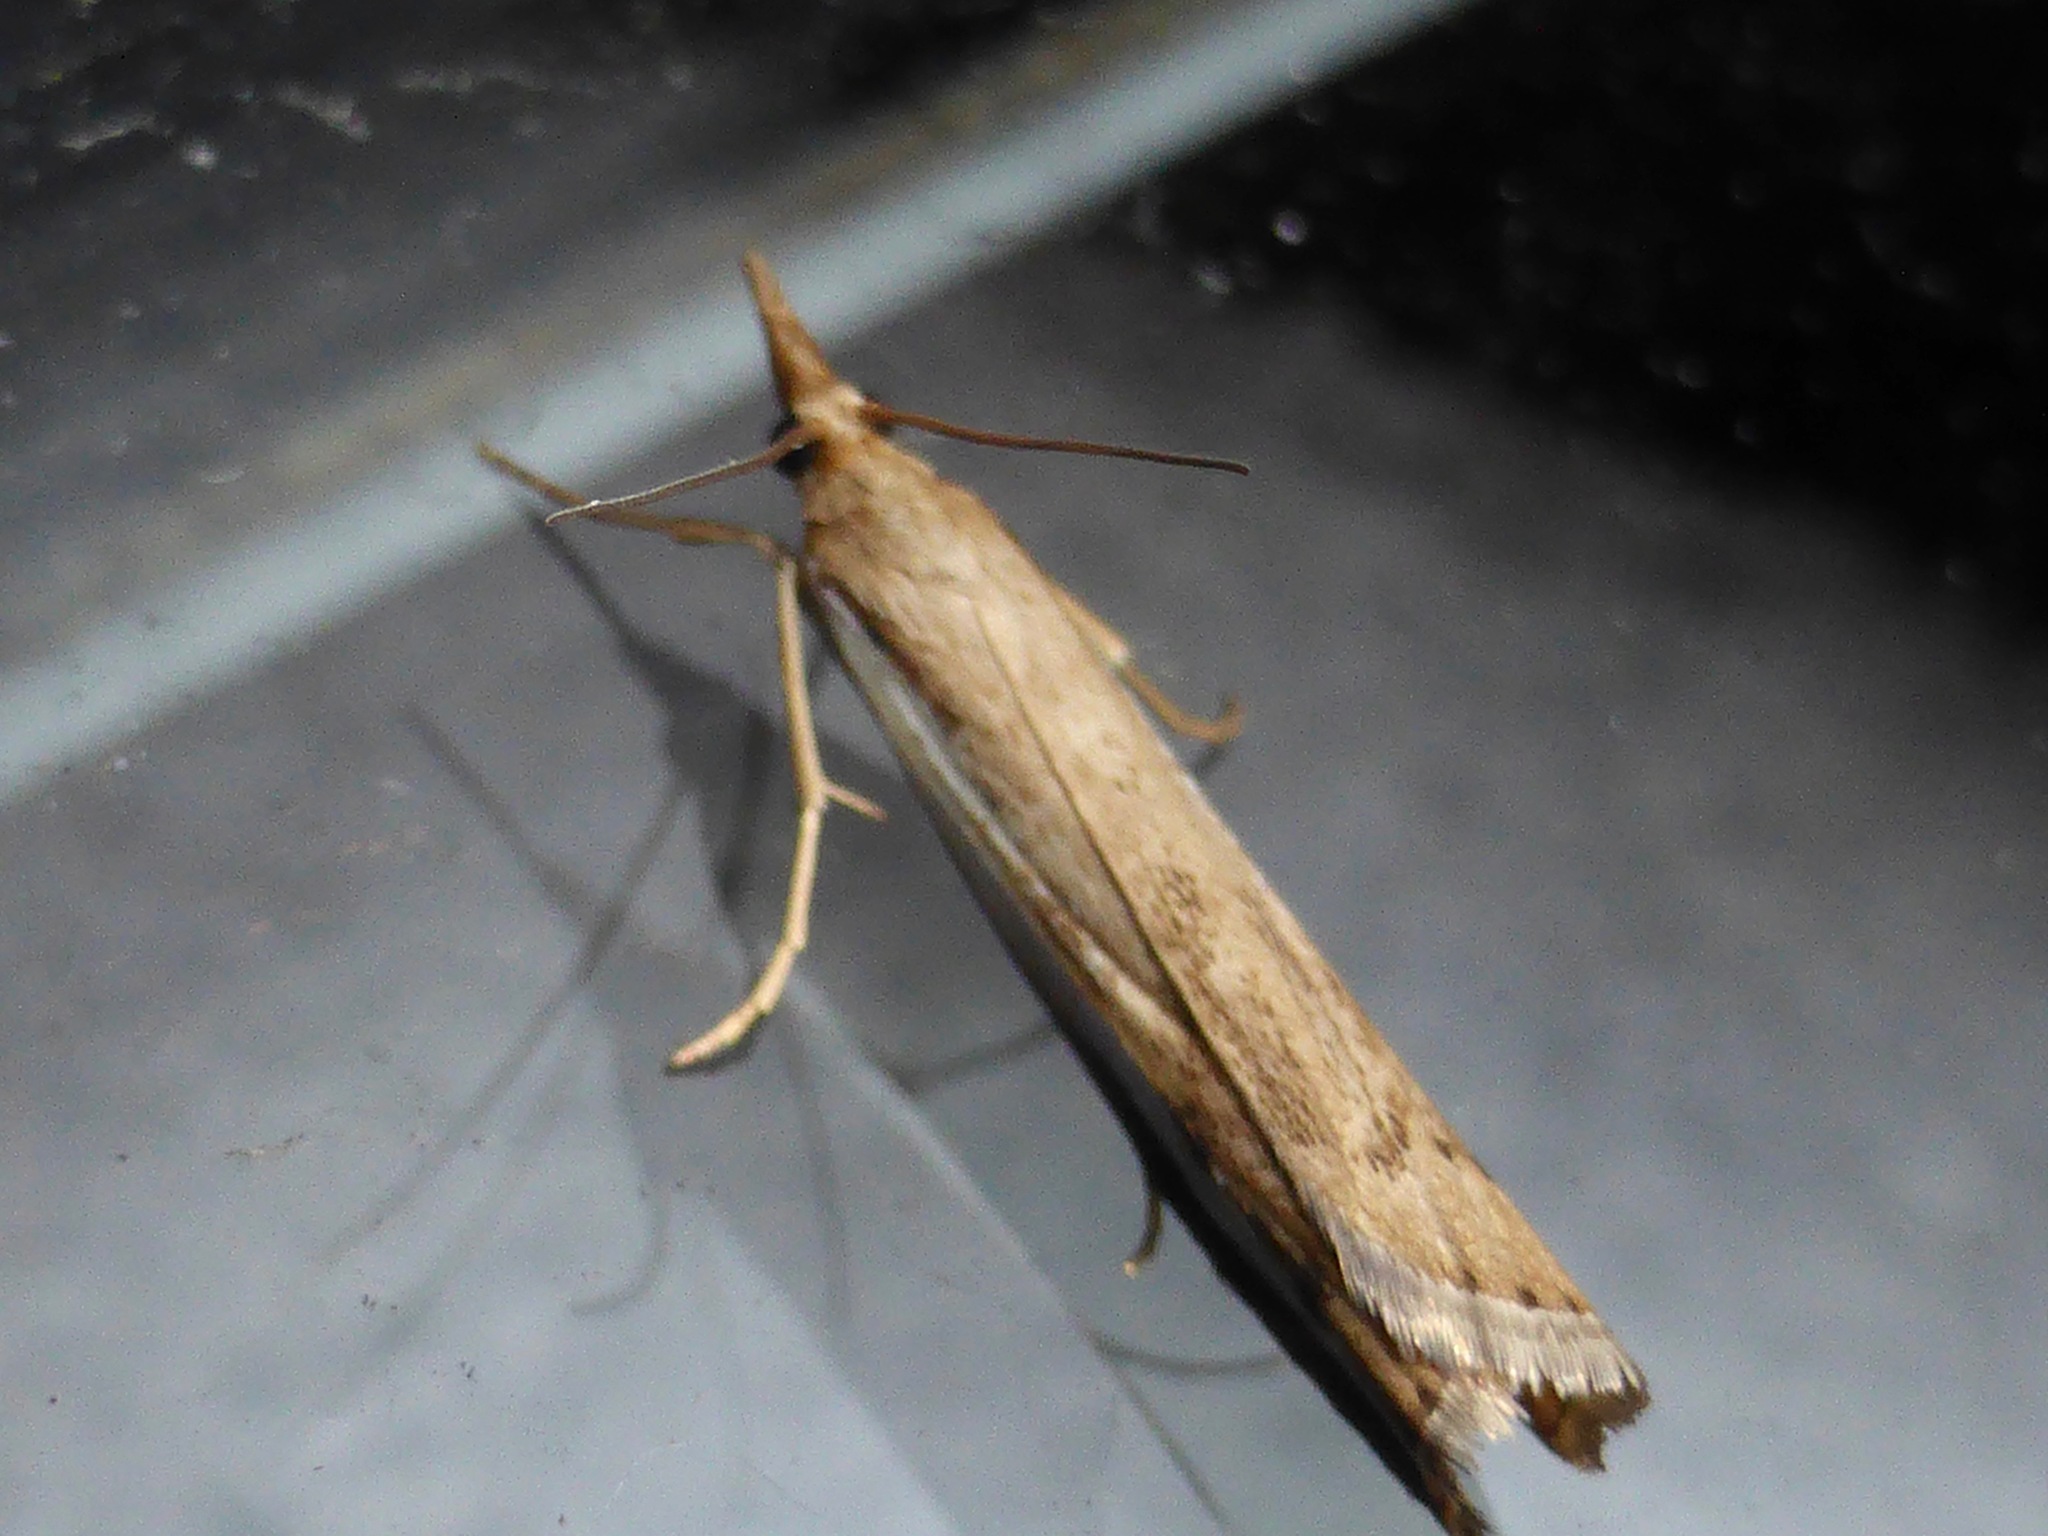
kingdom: Animalia
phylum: Arthropoda
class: Insecta
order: Lepidoptera
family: Crambidae
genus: Orocrambus
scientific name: Orocrambus flexuosellus
